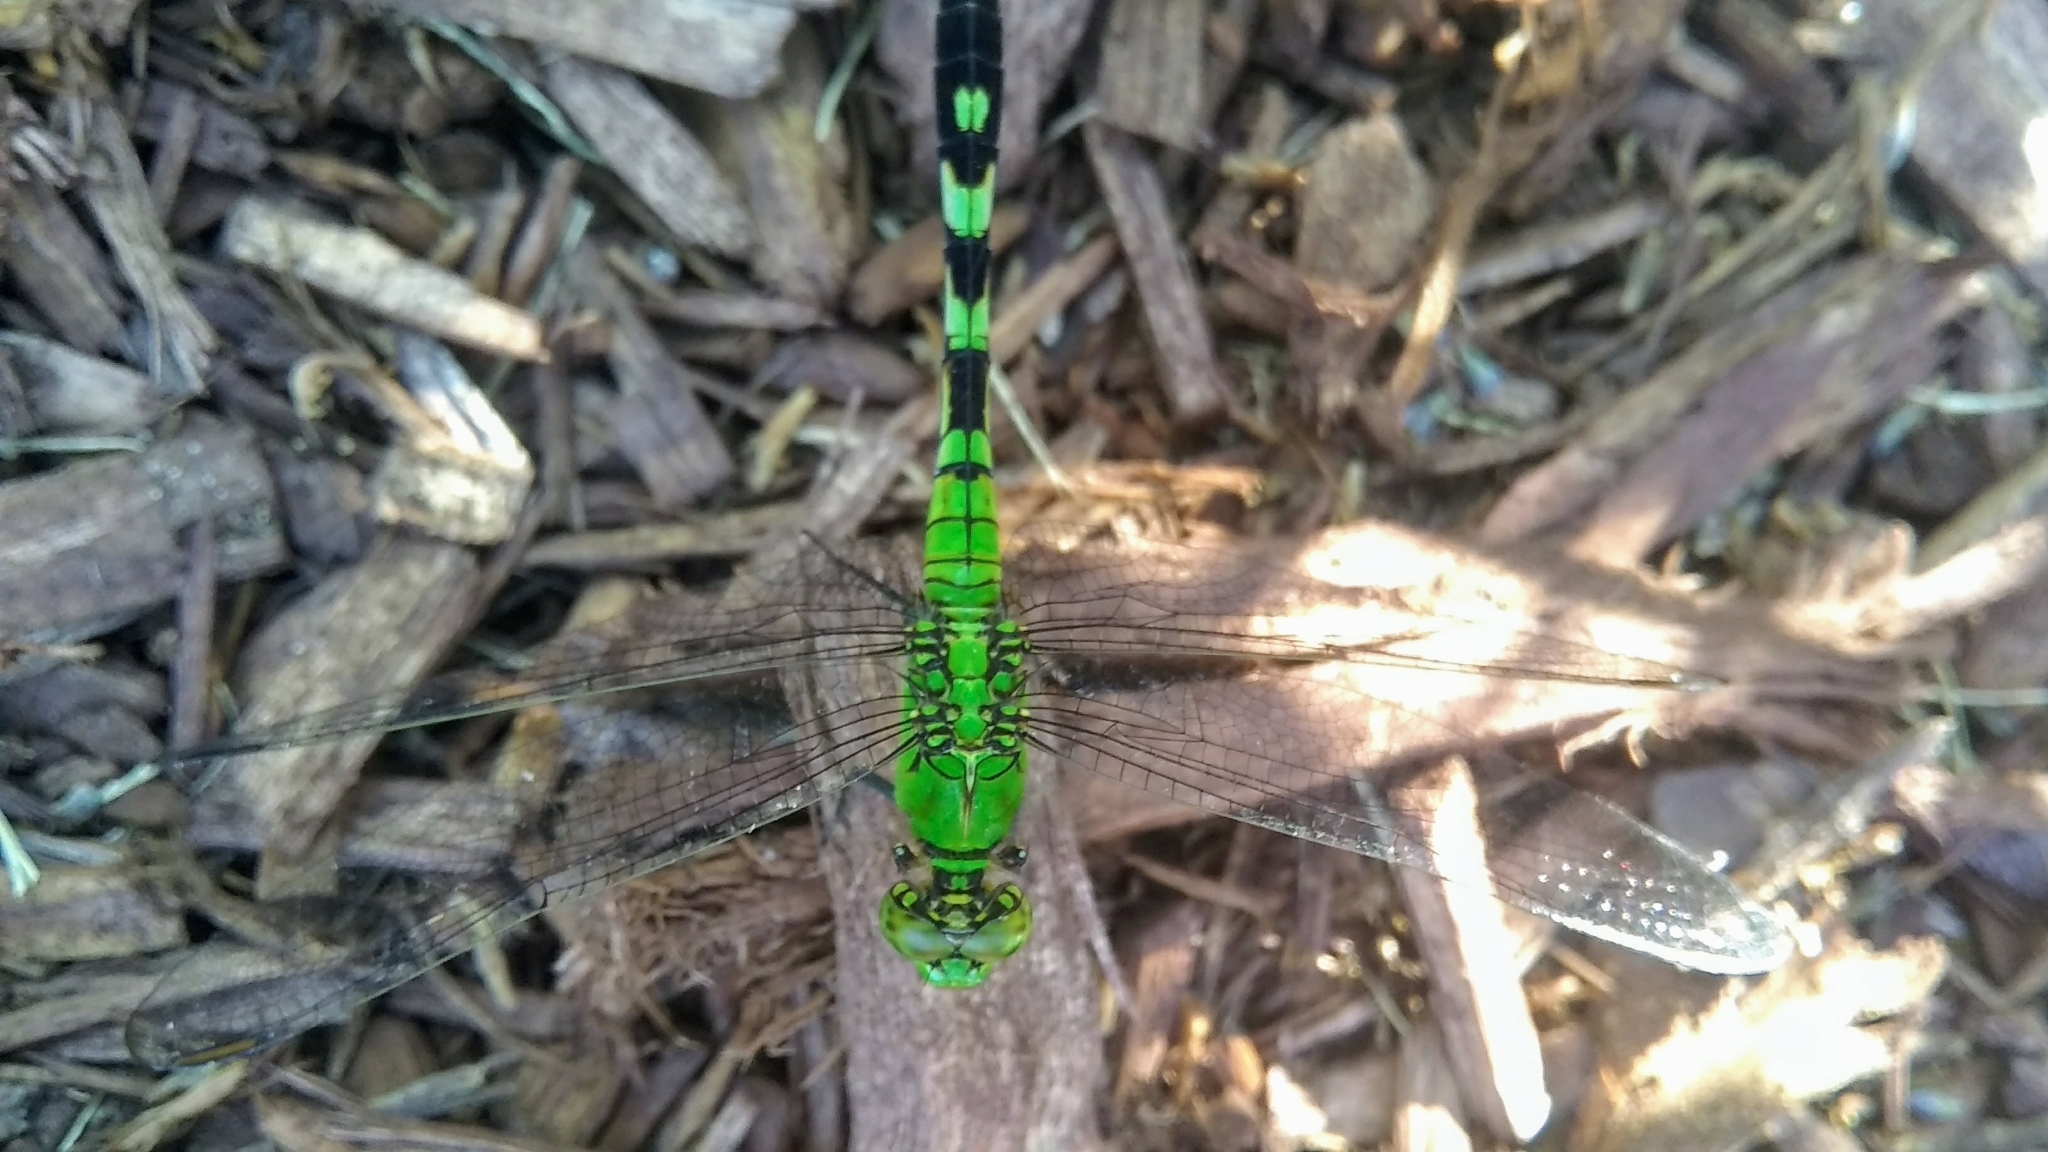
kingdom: Animalia
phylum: Arthropoda
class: Insecta
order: Odonata
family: Libellulidae
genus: Erythemis
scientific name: Erythemis simplicicollis
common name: Eastern pondhawk
